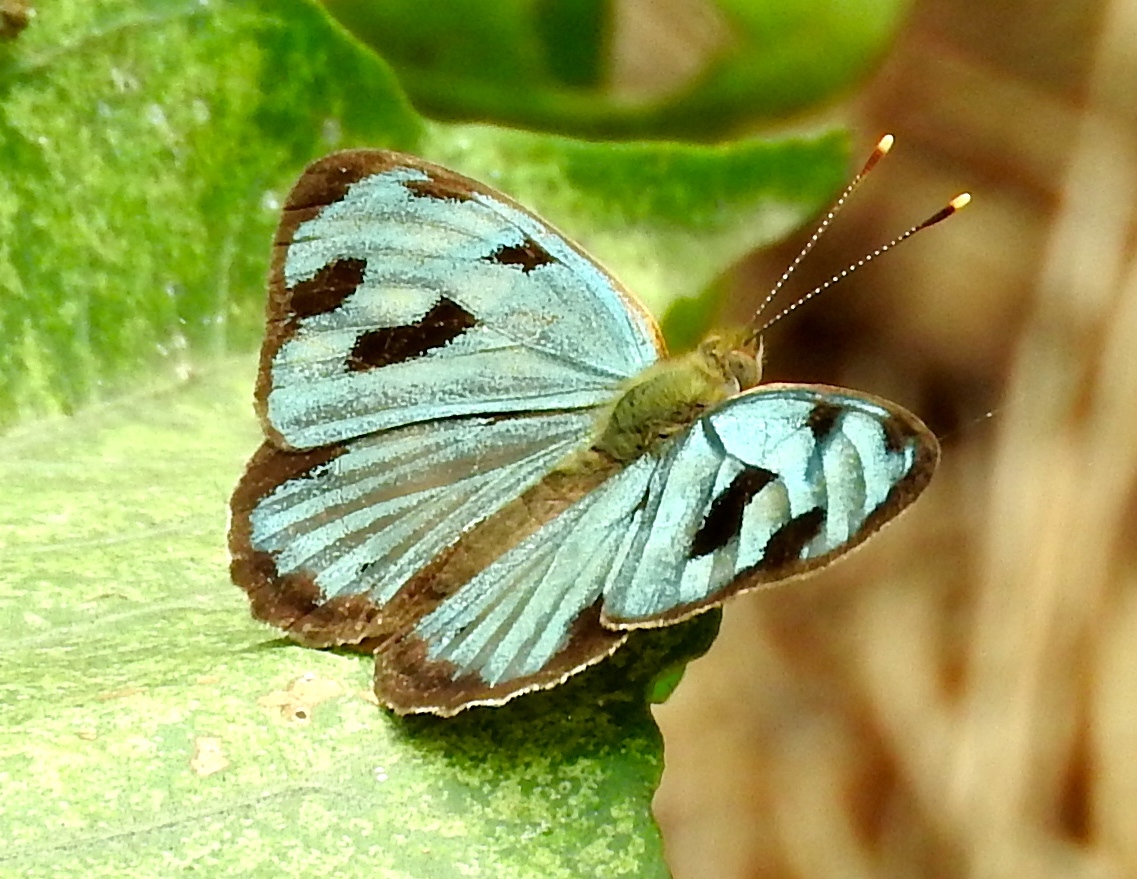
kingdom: Animalia
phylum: Arthropoda
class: Insecta
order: Lepidoptera
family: Nymphalidae
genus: Dynamine
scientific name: Dynamine mylitta
